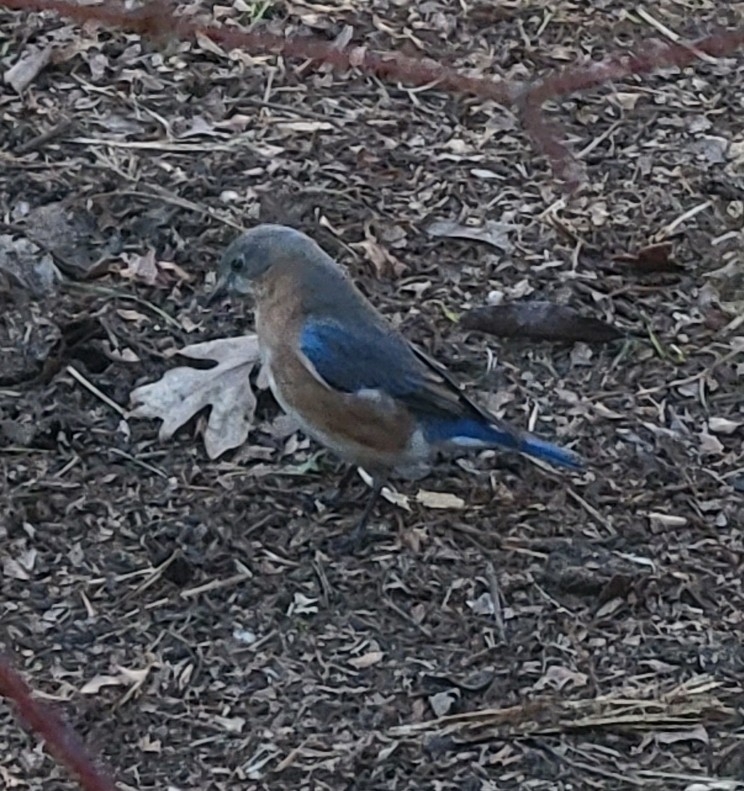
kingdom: Animalia
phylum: Chordata
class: Aves
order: Passeriformes
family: Turdidae
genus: Sialia
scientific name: Sialia sialis
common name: Eastern bluebird
